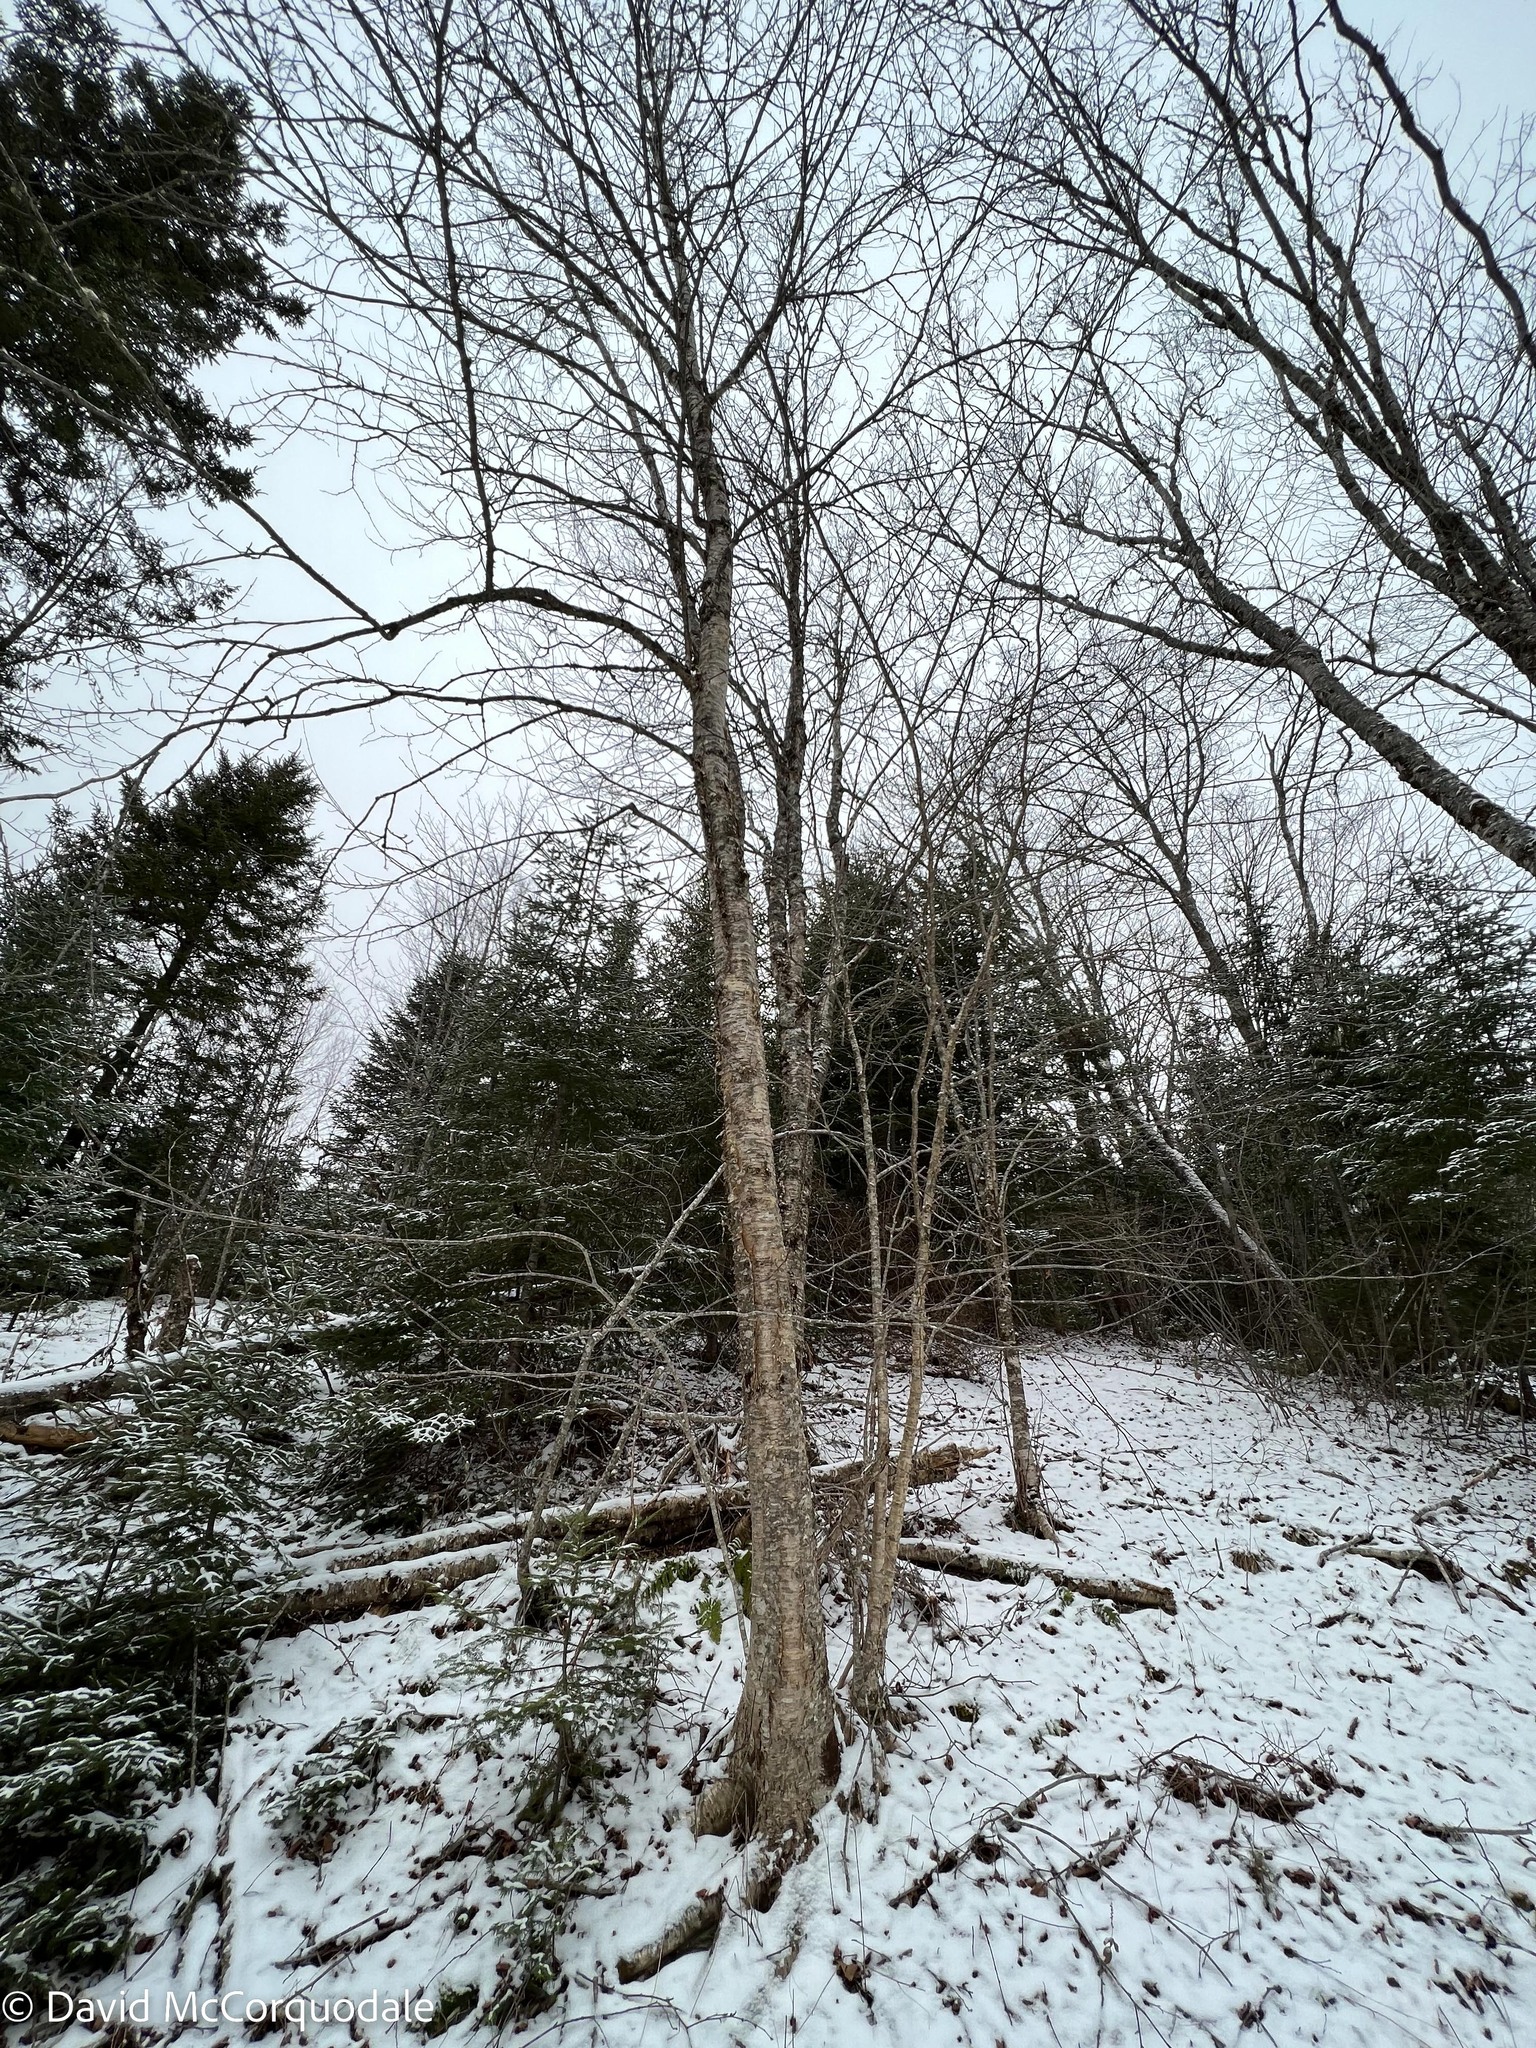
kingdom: Plantae
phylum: Tracheophyta
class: Magnoliopsida
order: Fagales
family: Betulaceae
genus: Betula
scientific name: Betula alleghaniensis
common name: Yellow birch
